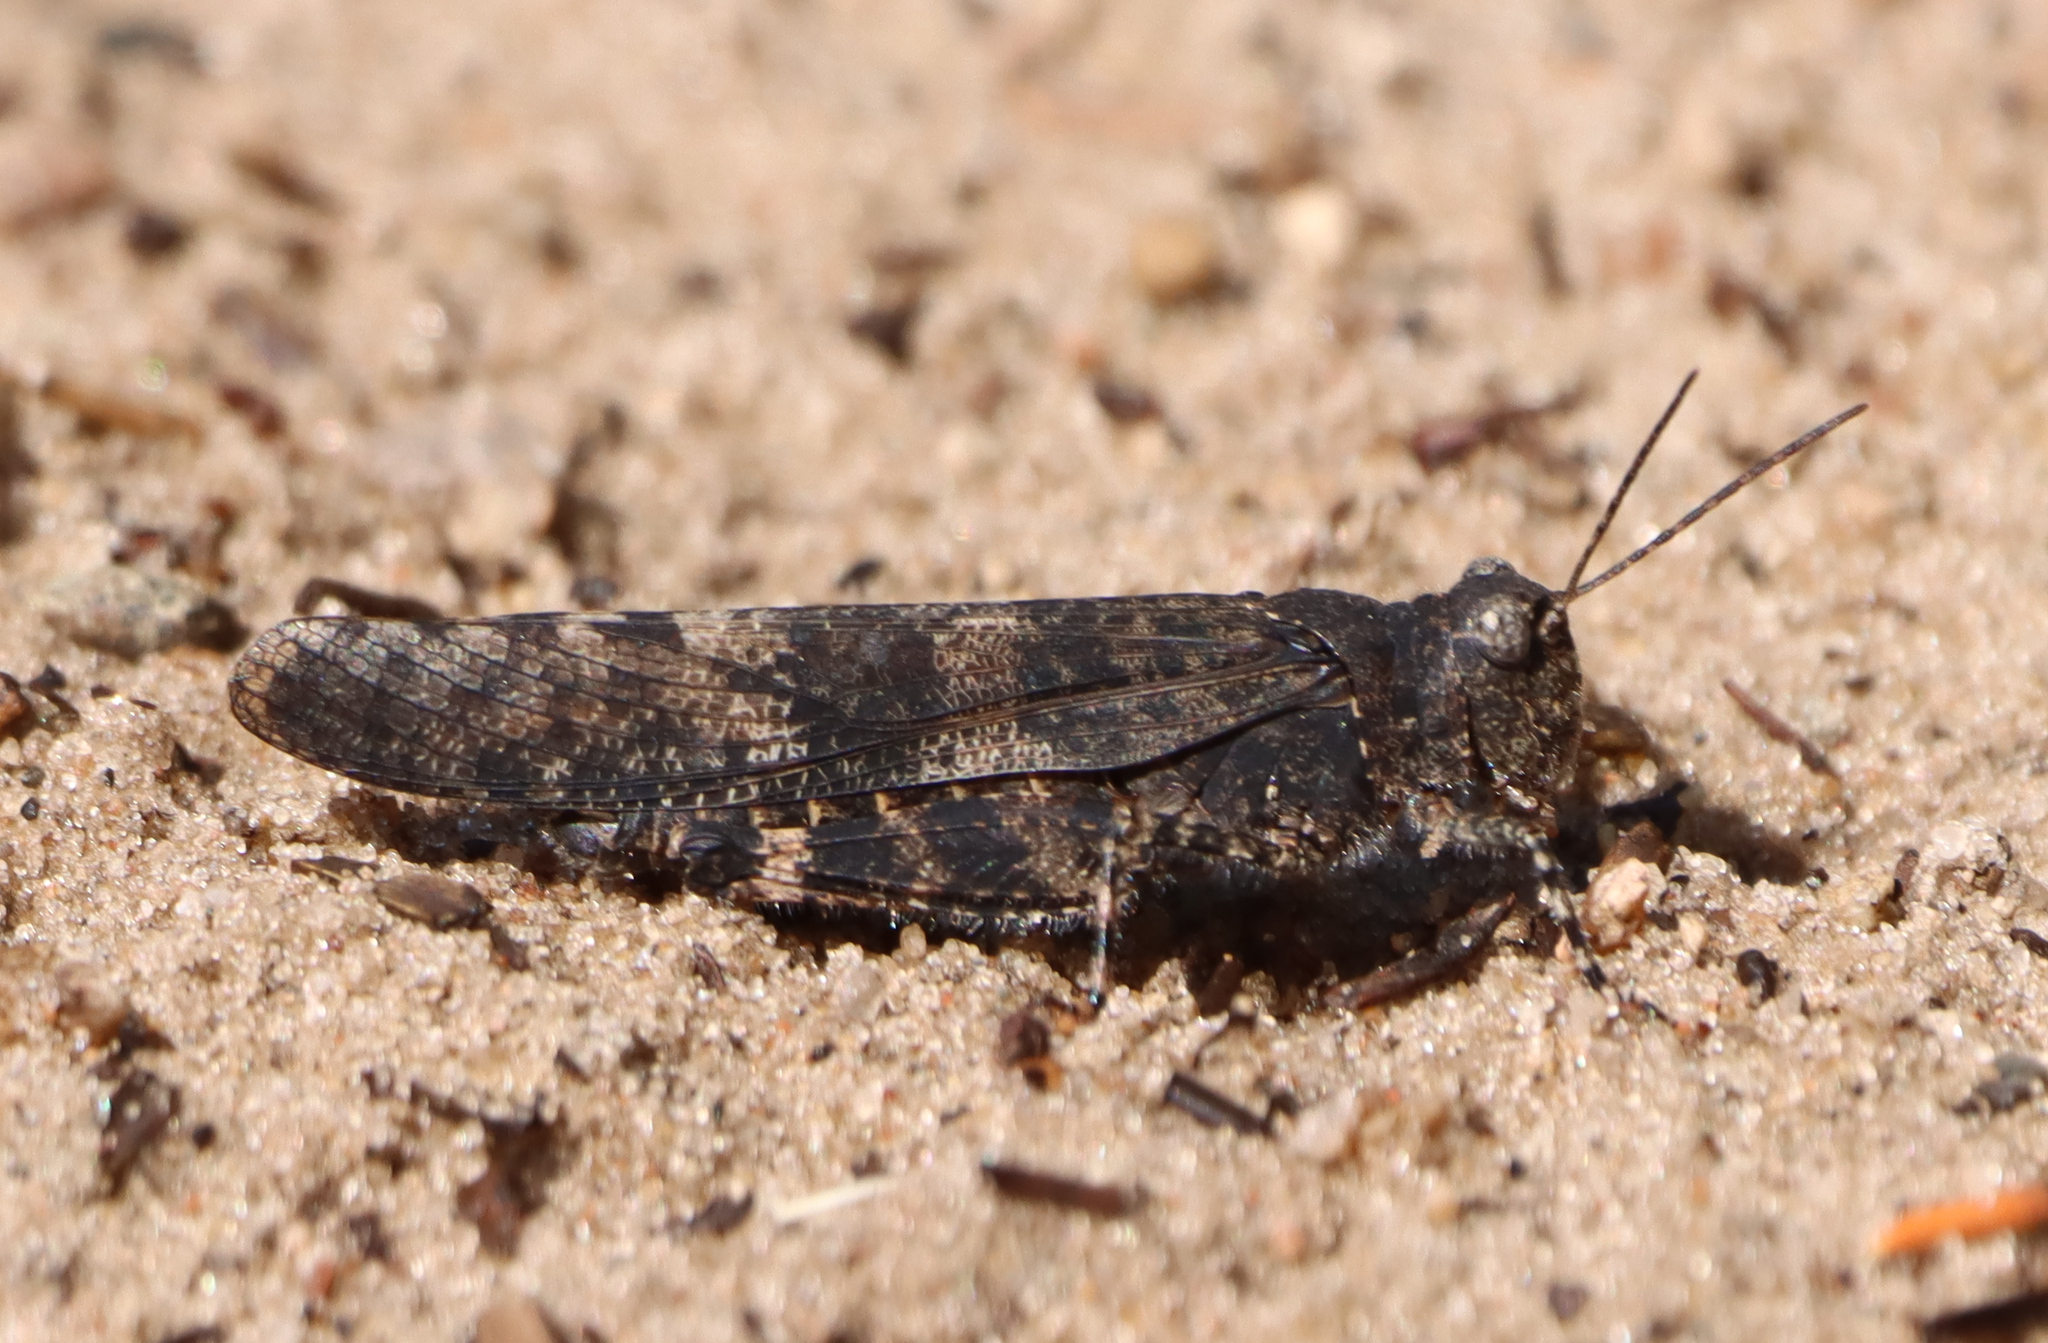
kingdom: Animalia
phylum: Arthropoda
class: Insecta
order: Orthoptera
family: Acrididae
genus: Trimerotropis
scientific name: Trimerotropis verruculata
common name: Crackling forest grasshopper
